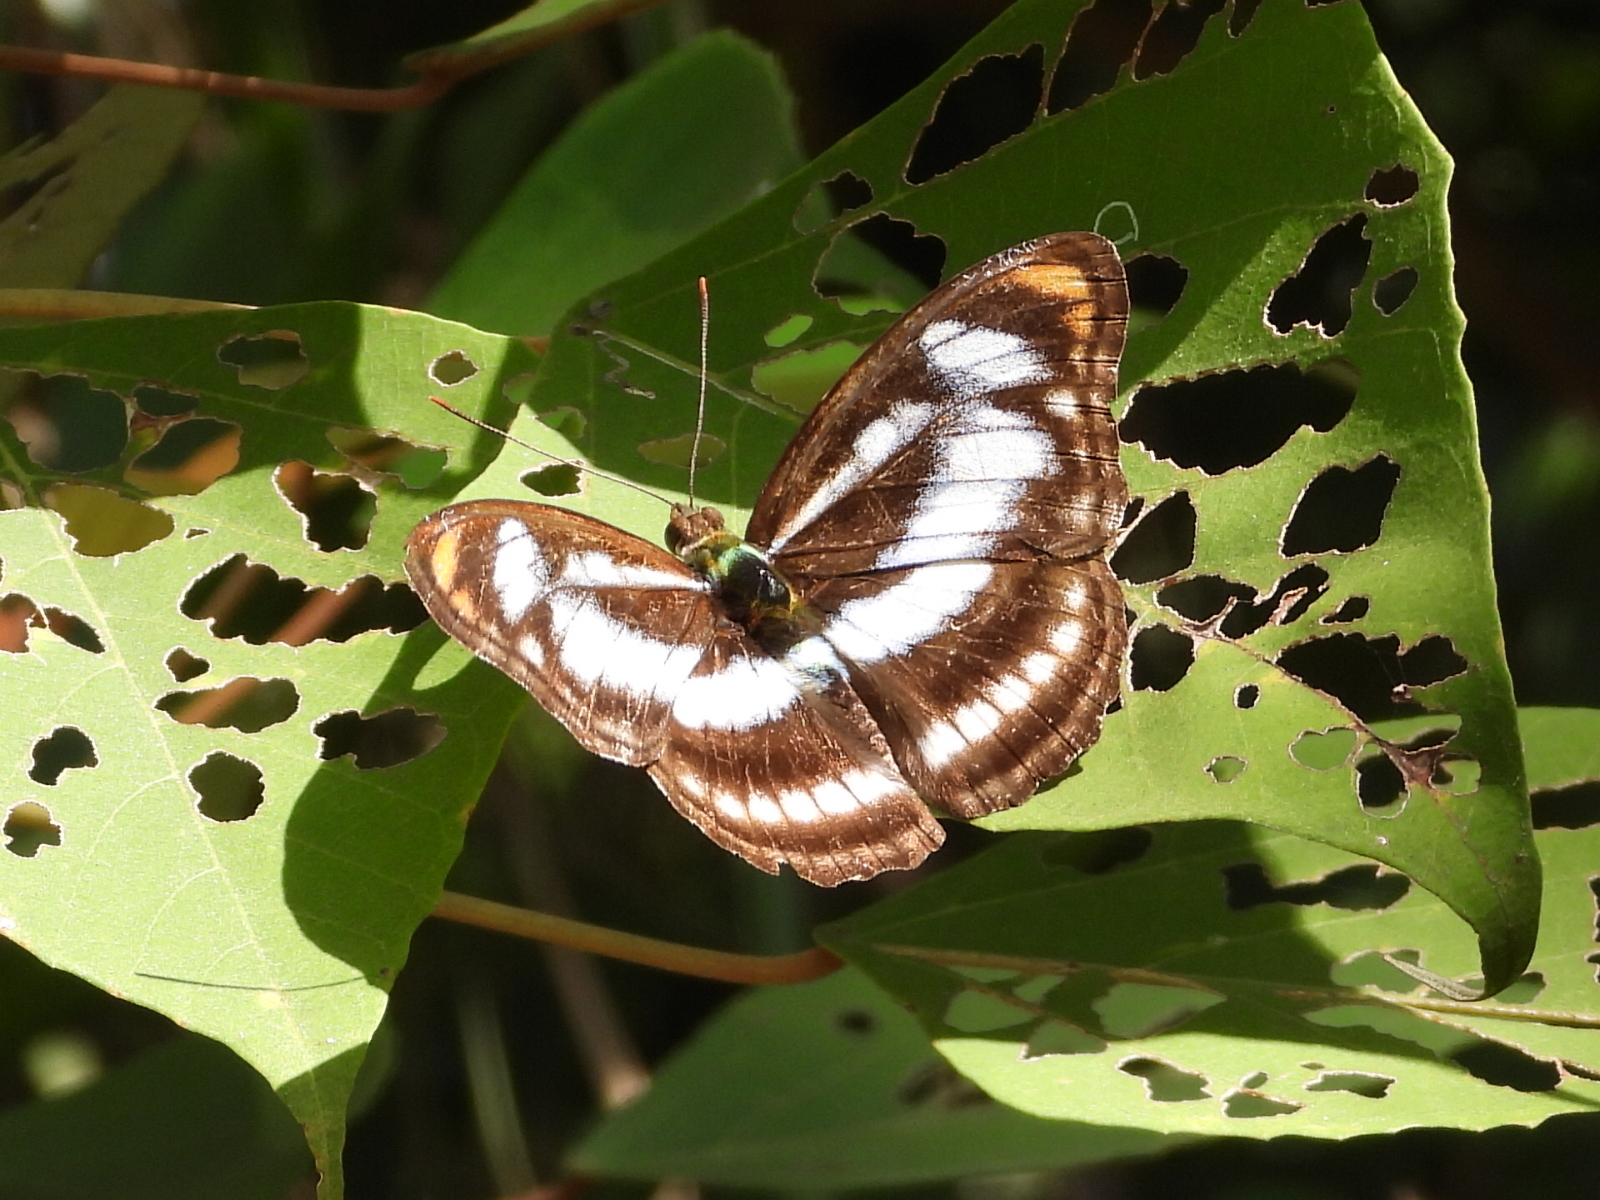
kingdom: Animalia
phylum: Arthropoda
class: Insecta
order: Lepidoptera
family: Nymphalidae
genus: Parathyma
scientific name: Parathyma nefte
